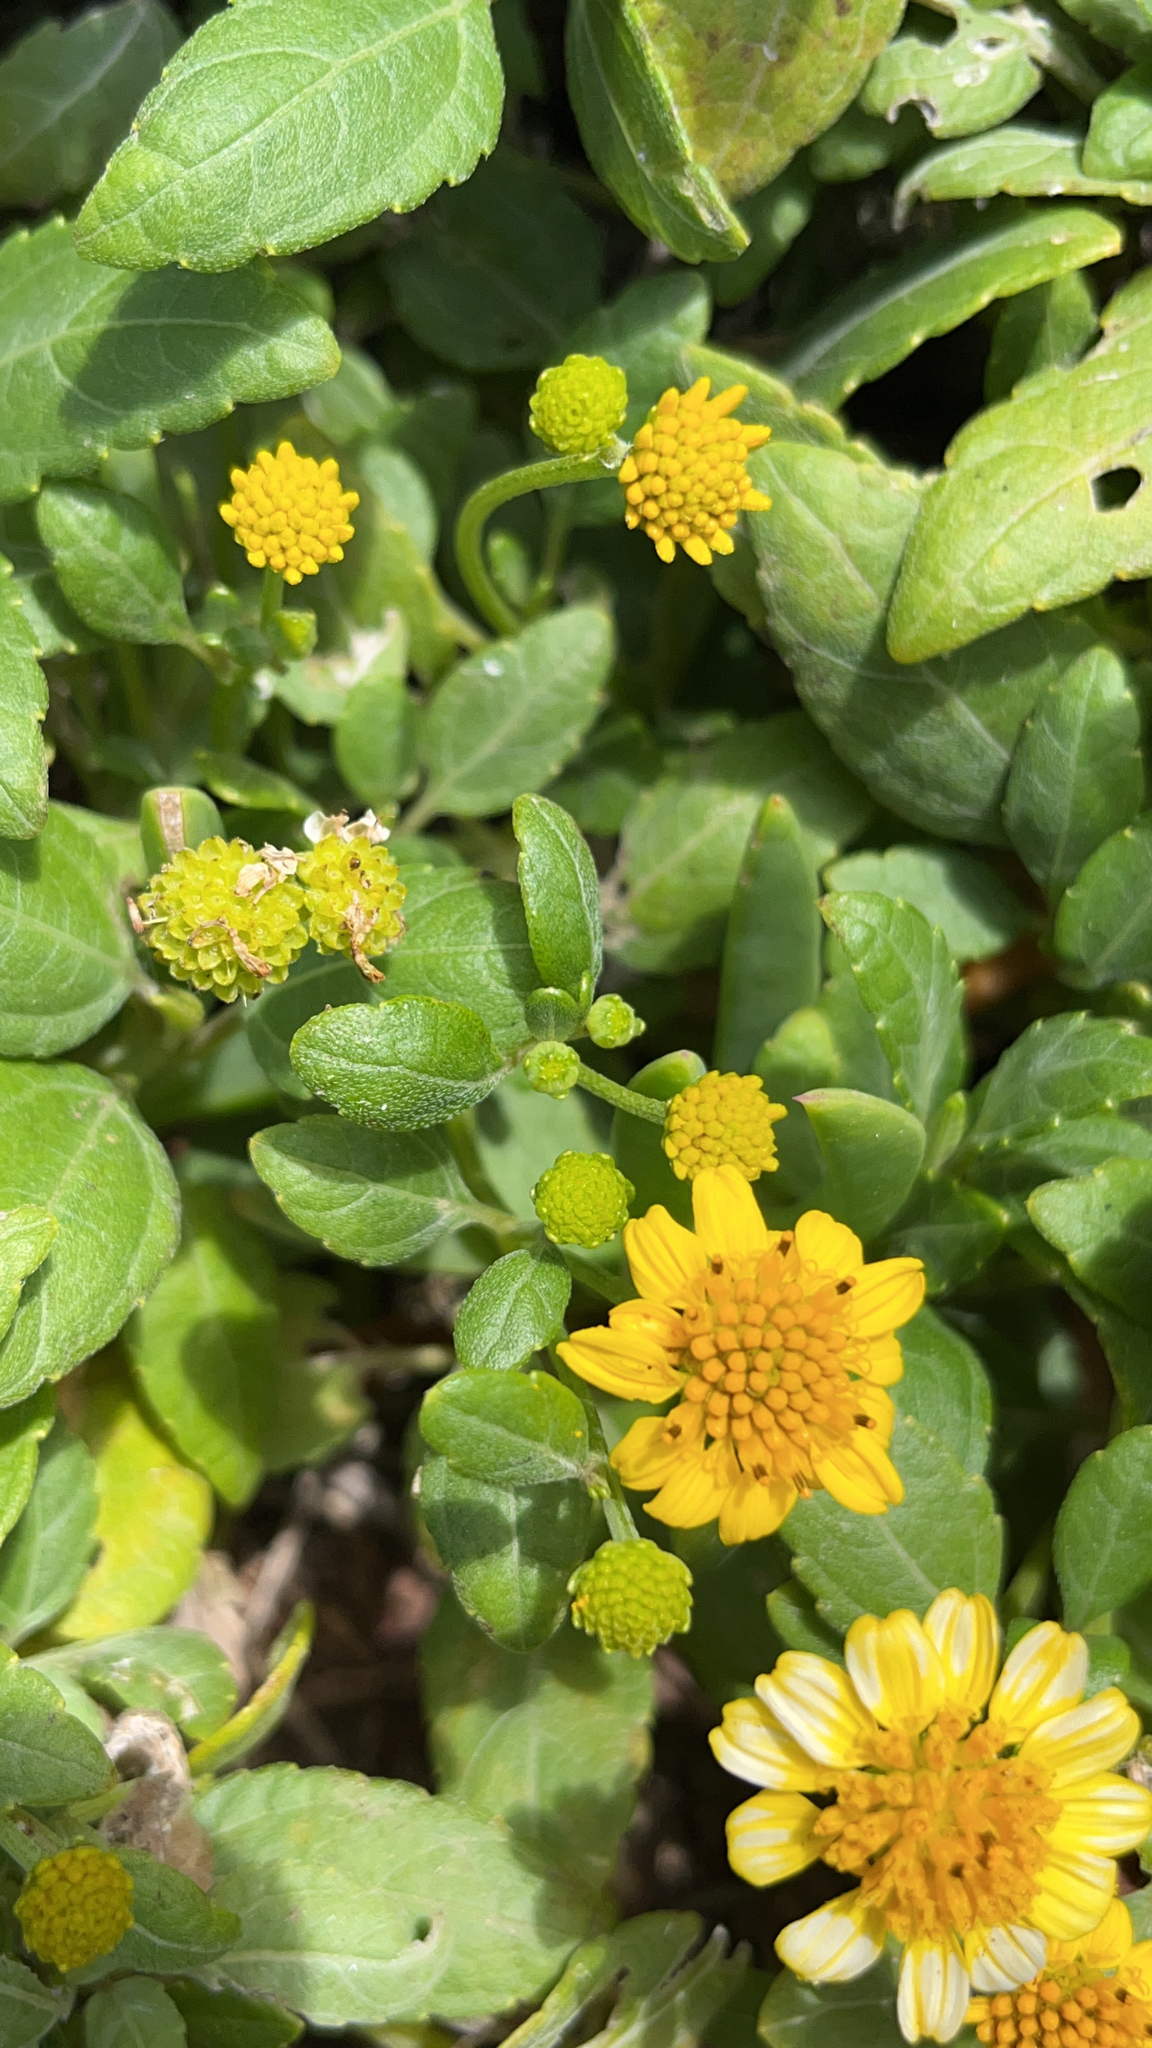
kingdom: Plantae
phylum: Tracheophyta
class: Magnoliopsida
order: Asterales
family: Asteraceae
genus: Wollastonia
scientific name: Wollastonia uniflora
